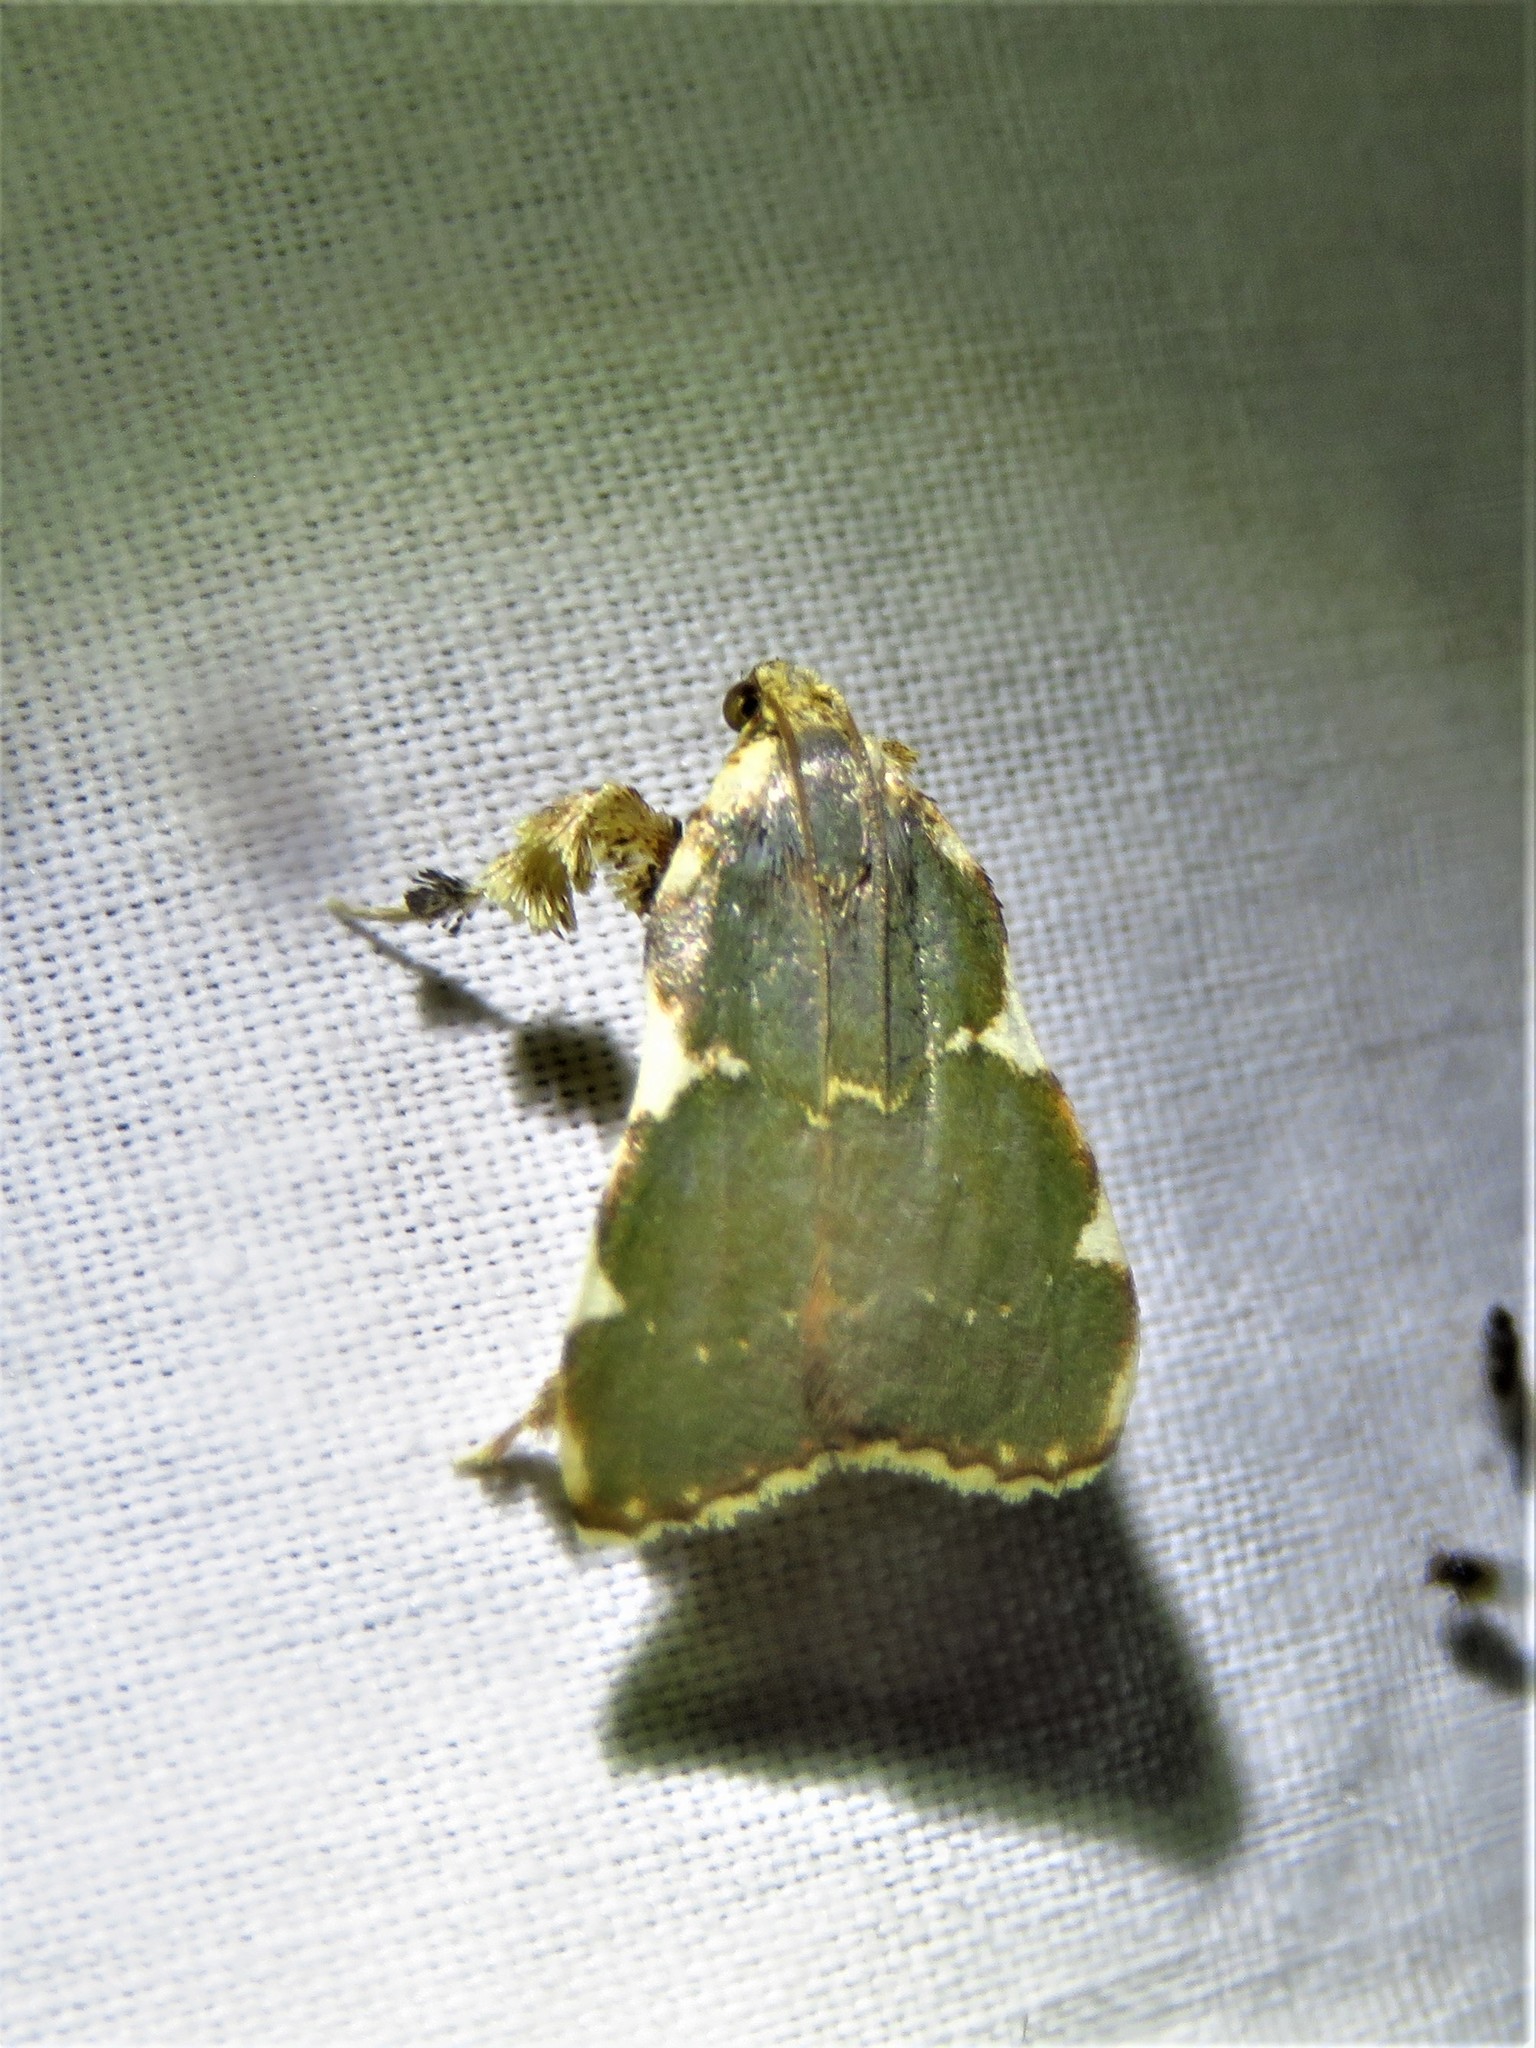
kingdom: Animalia
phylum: Arthropoda
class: Insecta
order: Lepidoptera
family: Pyralidae
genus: Parachma
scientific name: Parachma rufoflavalis
